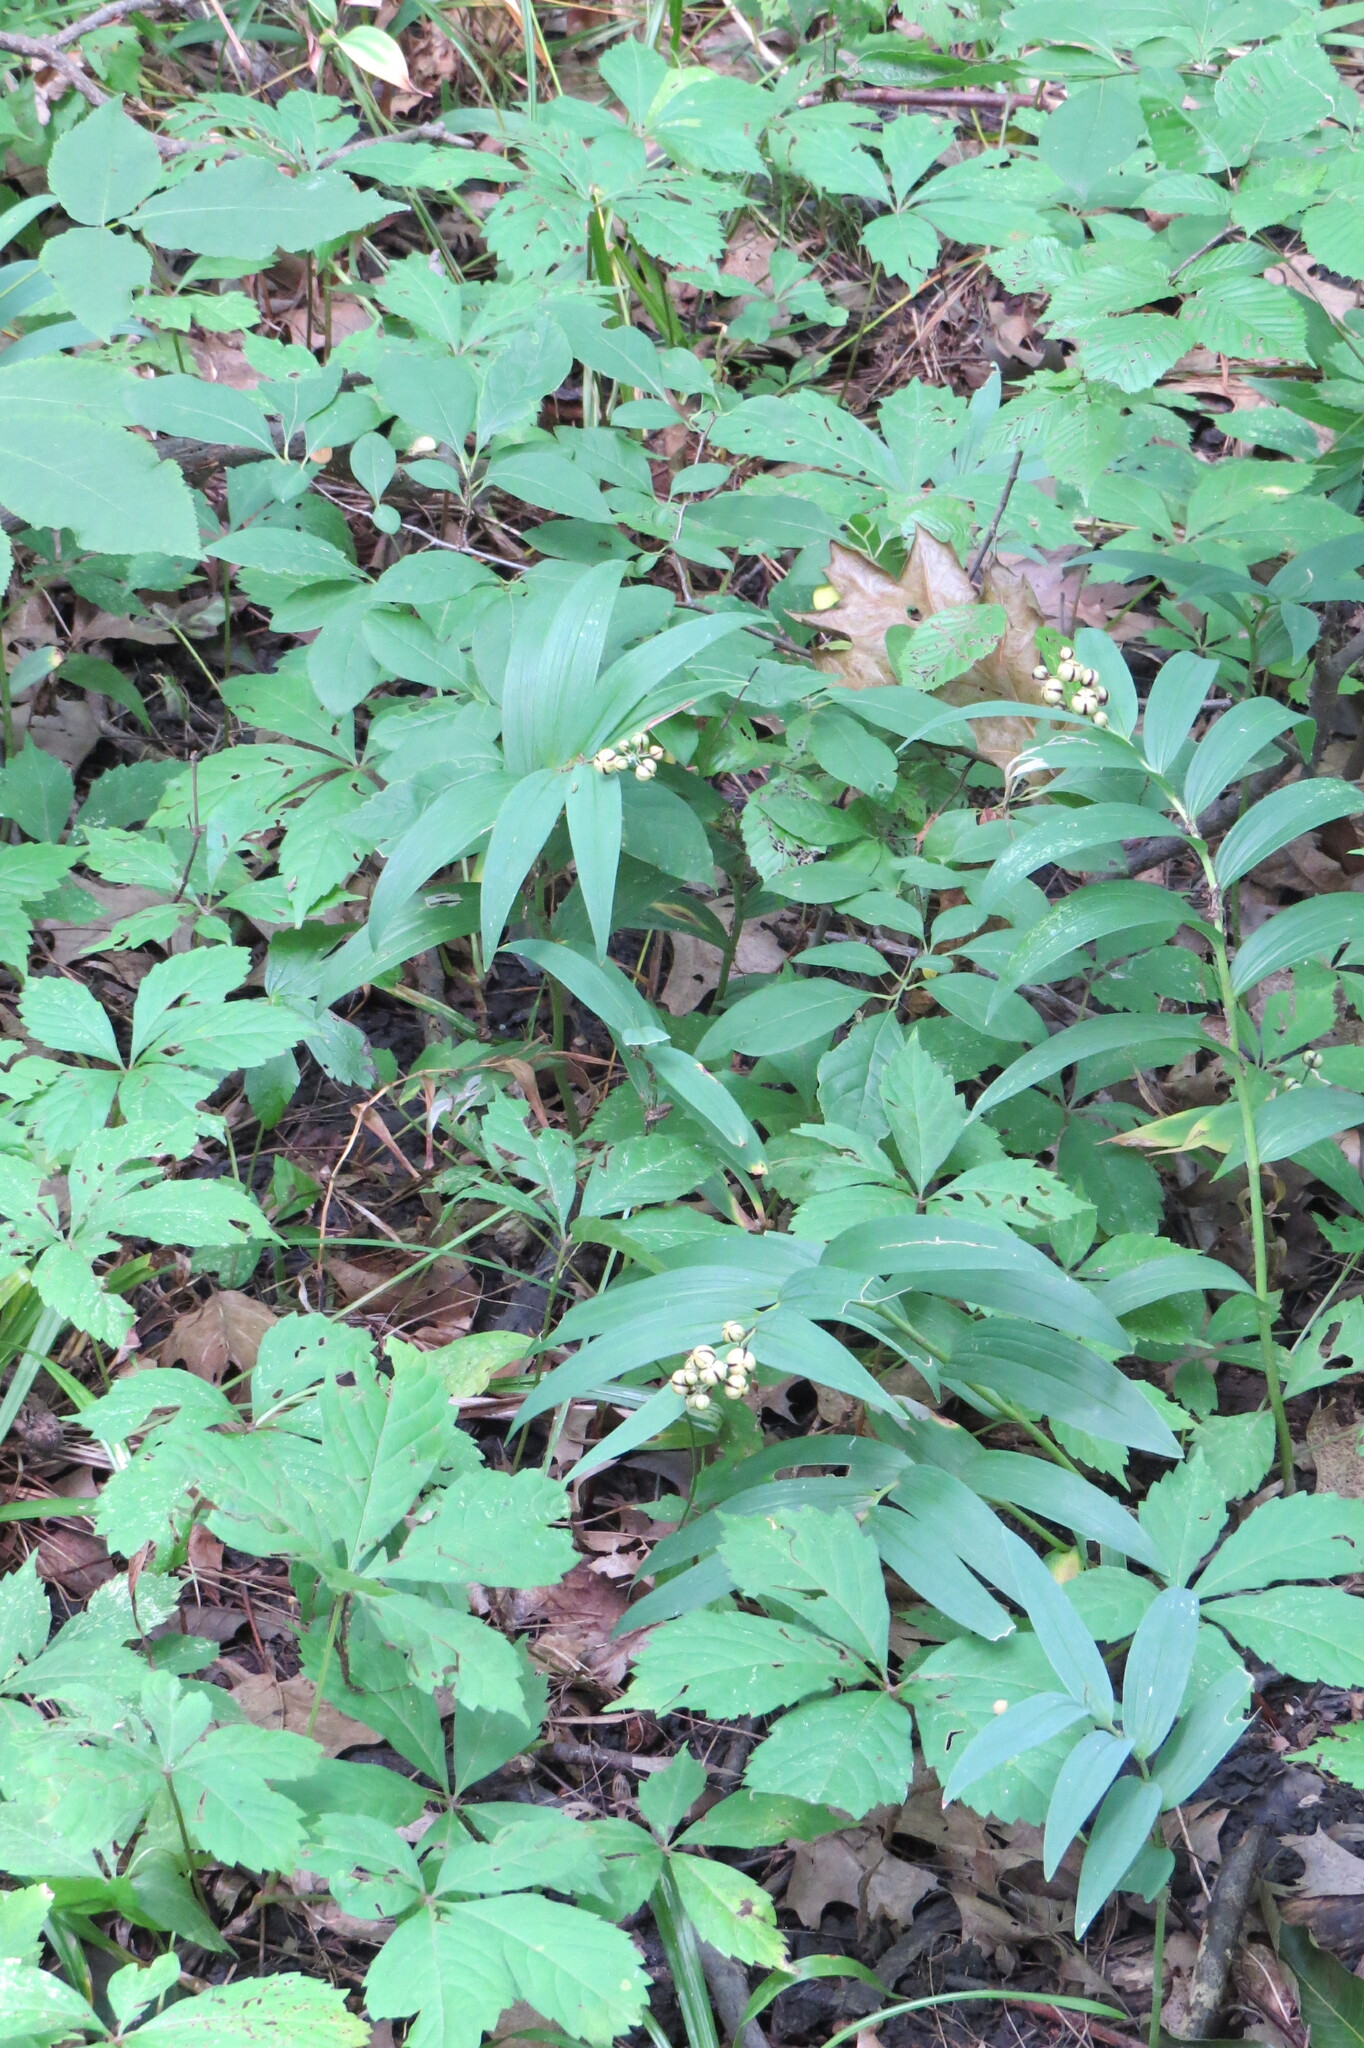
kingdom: Plantae
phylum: Tracheophyta
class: Liliopsida
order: Asparagales
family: Asparagaceae
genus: Maianthemum
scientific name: Maianthemum stellatum
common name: Little false solomon's seal
